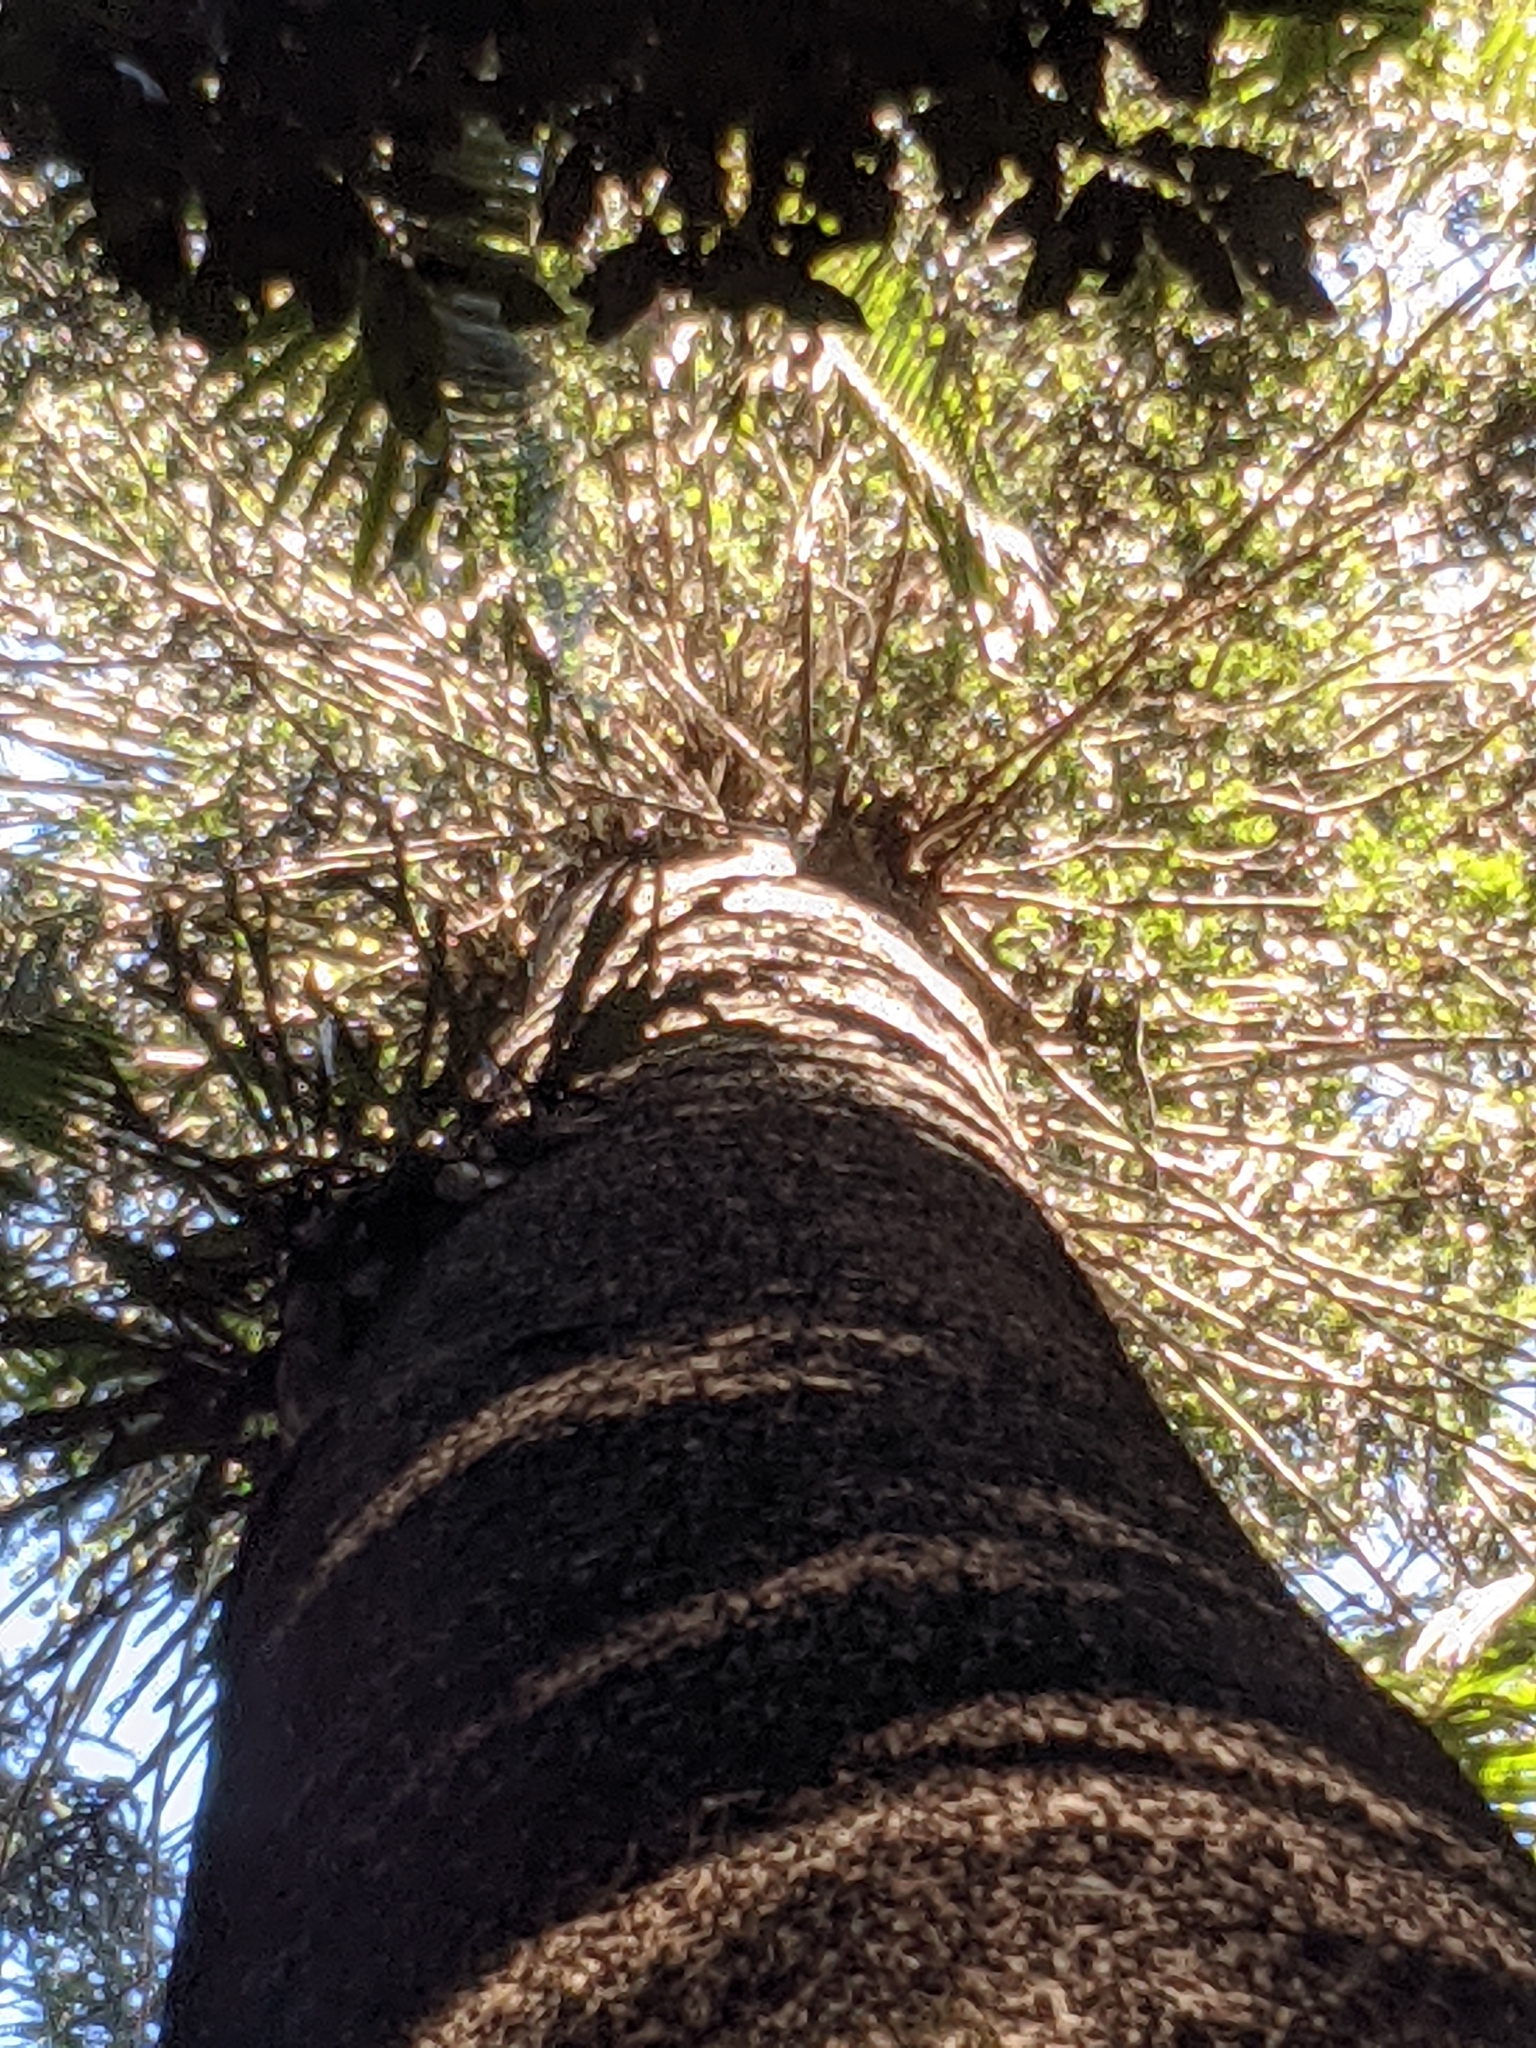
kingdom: Plantae
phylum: Tracheophyta
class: Pinopsida
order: Pinales
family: Araucariaceae
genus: Araucaria
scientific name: Araucaria bidwillii
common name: Moreton-bay-pine
